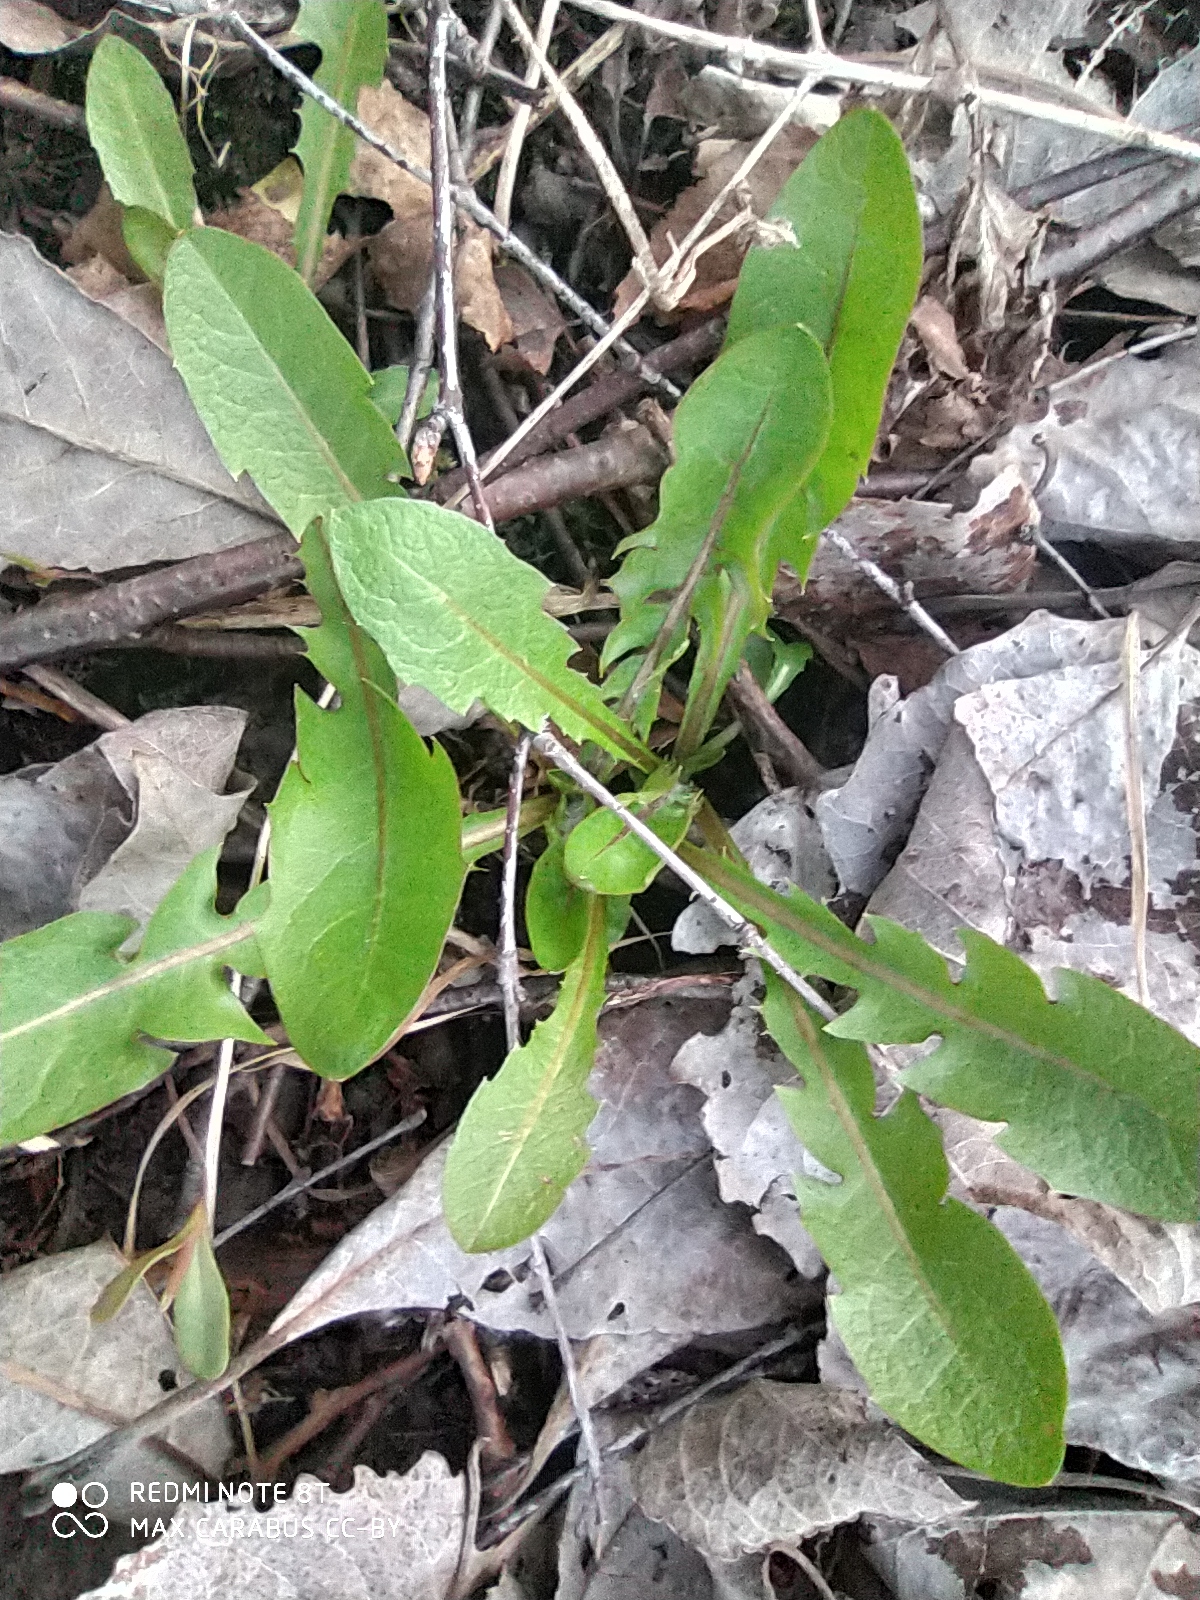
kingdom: Plantae
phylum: Tracheophyta
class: Magnoliopsida
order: Asterales
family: Asteraceae
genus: Taraxacum
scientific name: Taraxacum officinale
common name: Common dandelion
